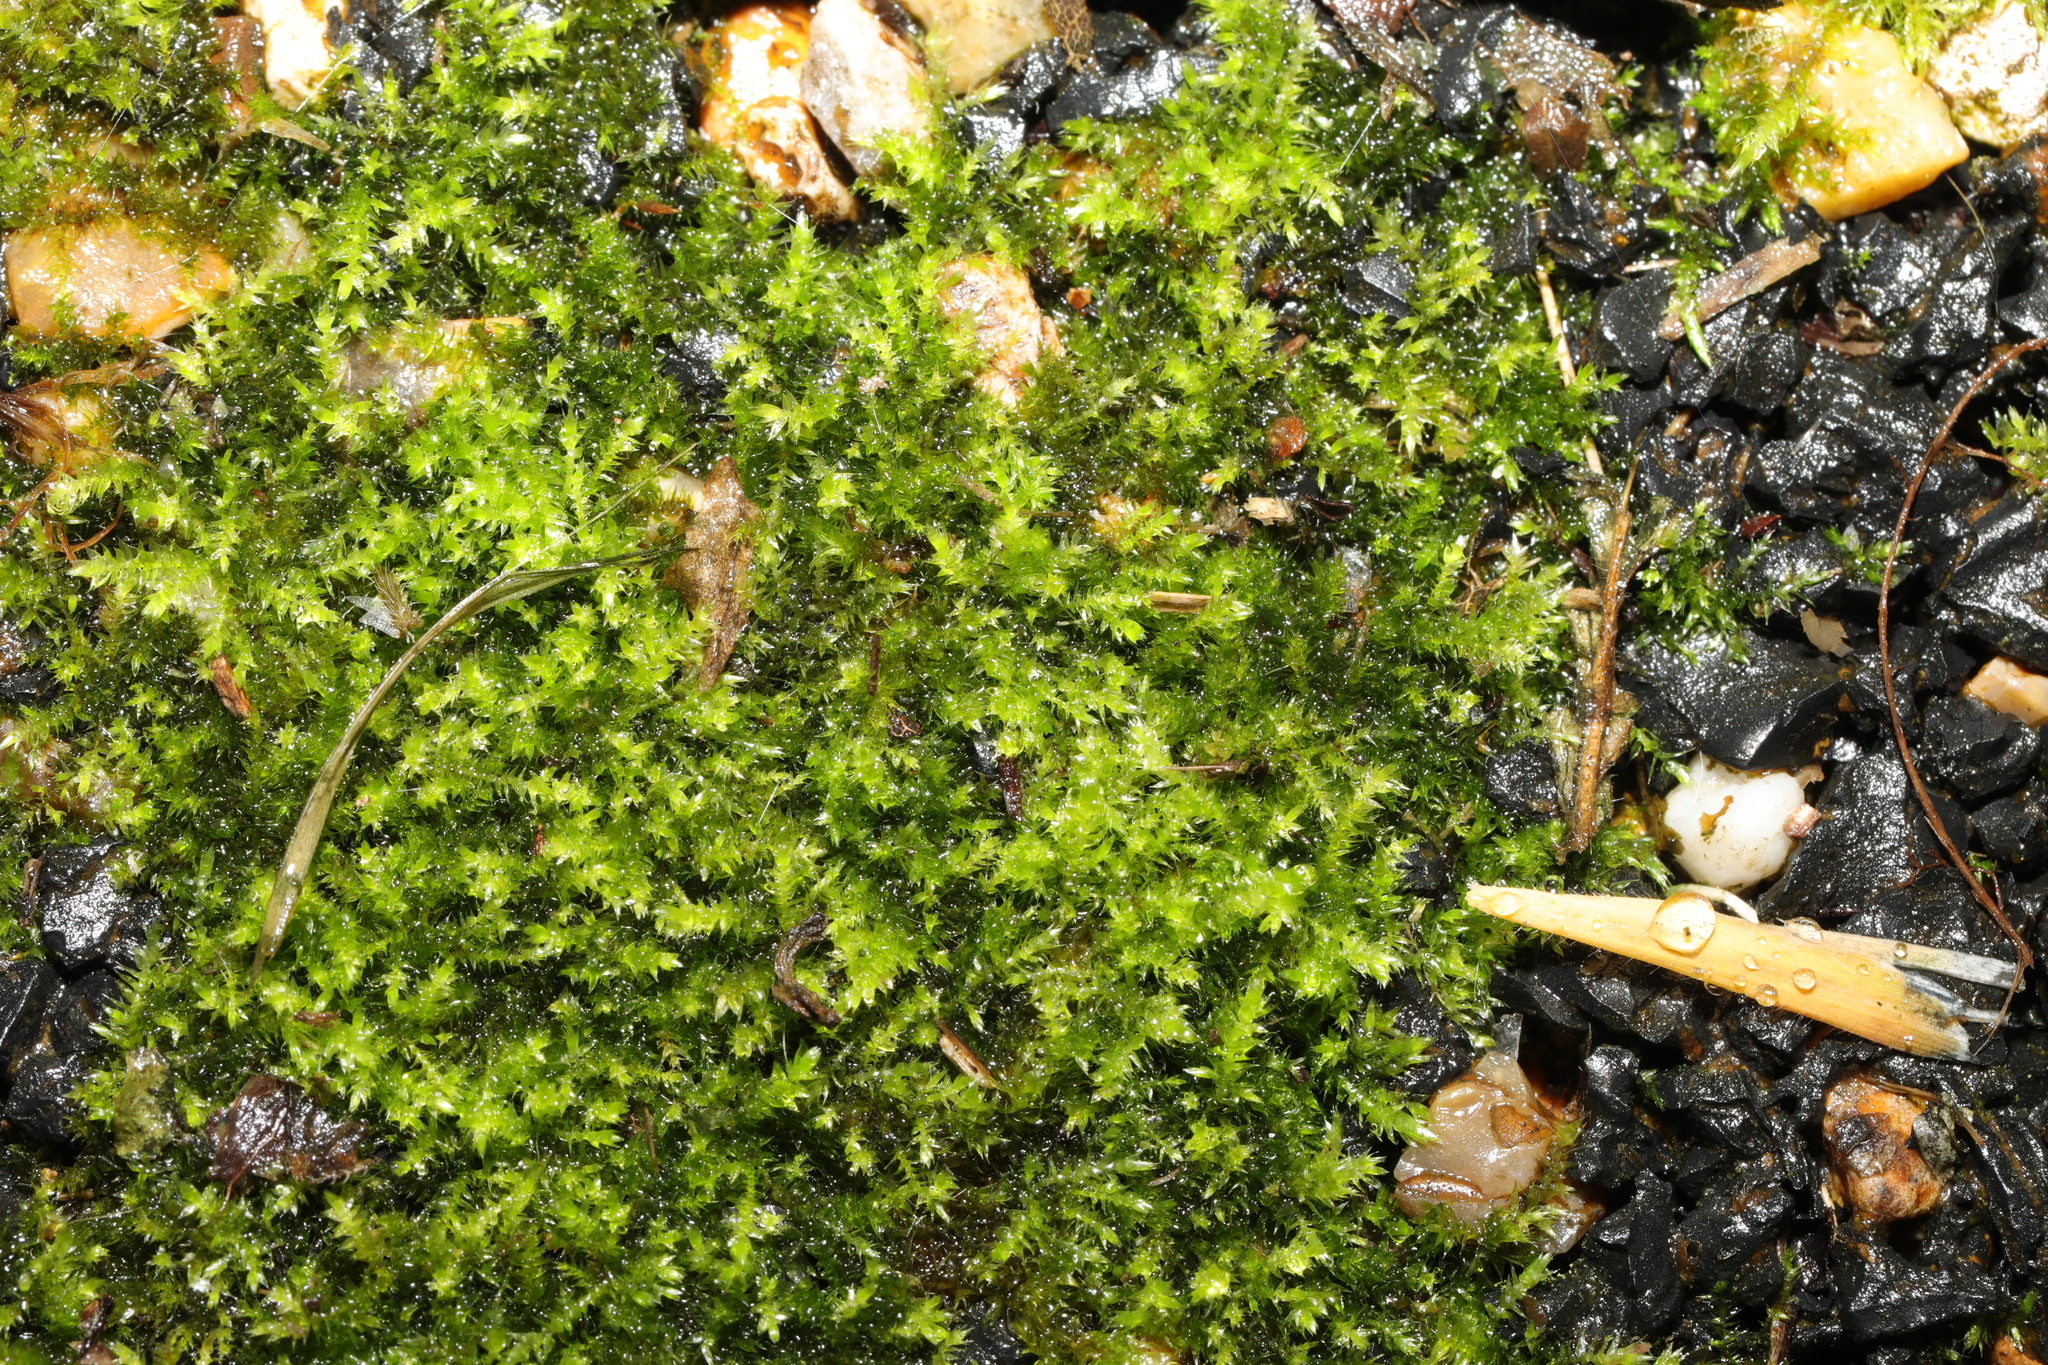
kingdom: Plantae
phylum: Bryophyta
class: Bryopsida
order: Hypnales
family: Amblystegiaceae
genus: Hygroamblystegium
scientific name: Hygroamblystegium varium
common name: Willow feather-moss
